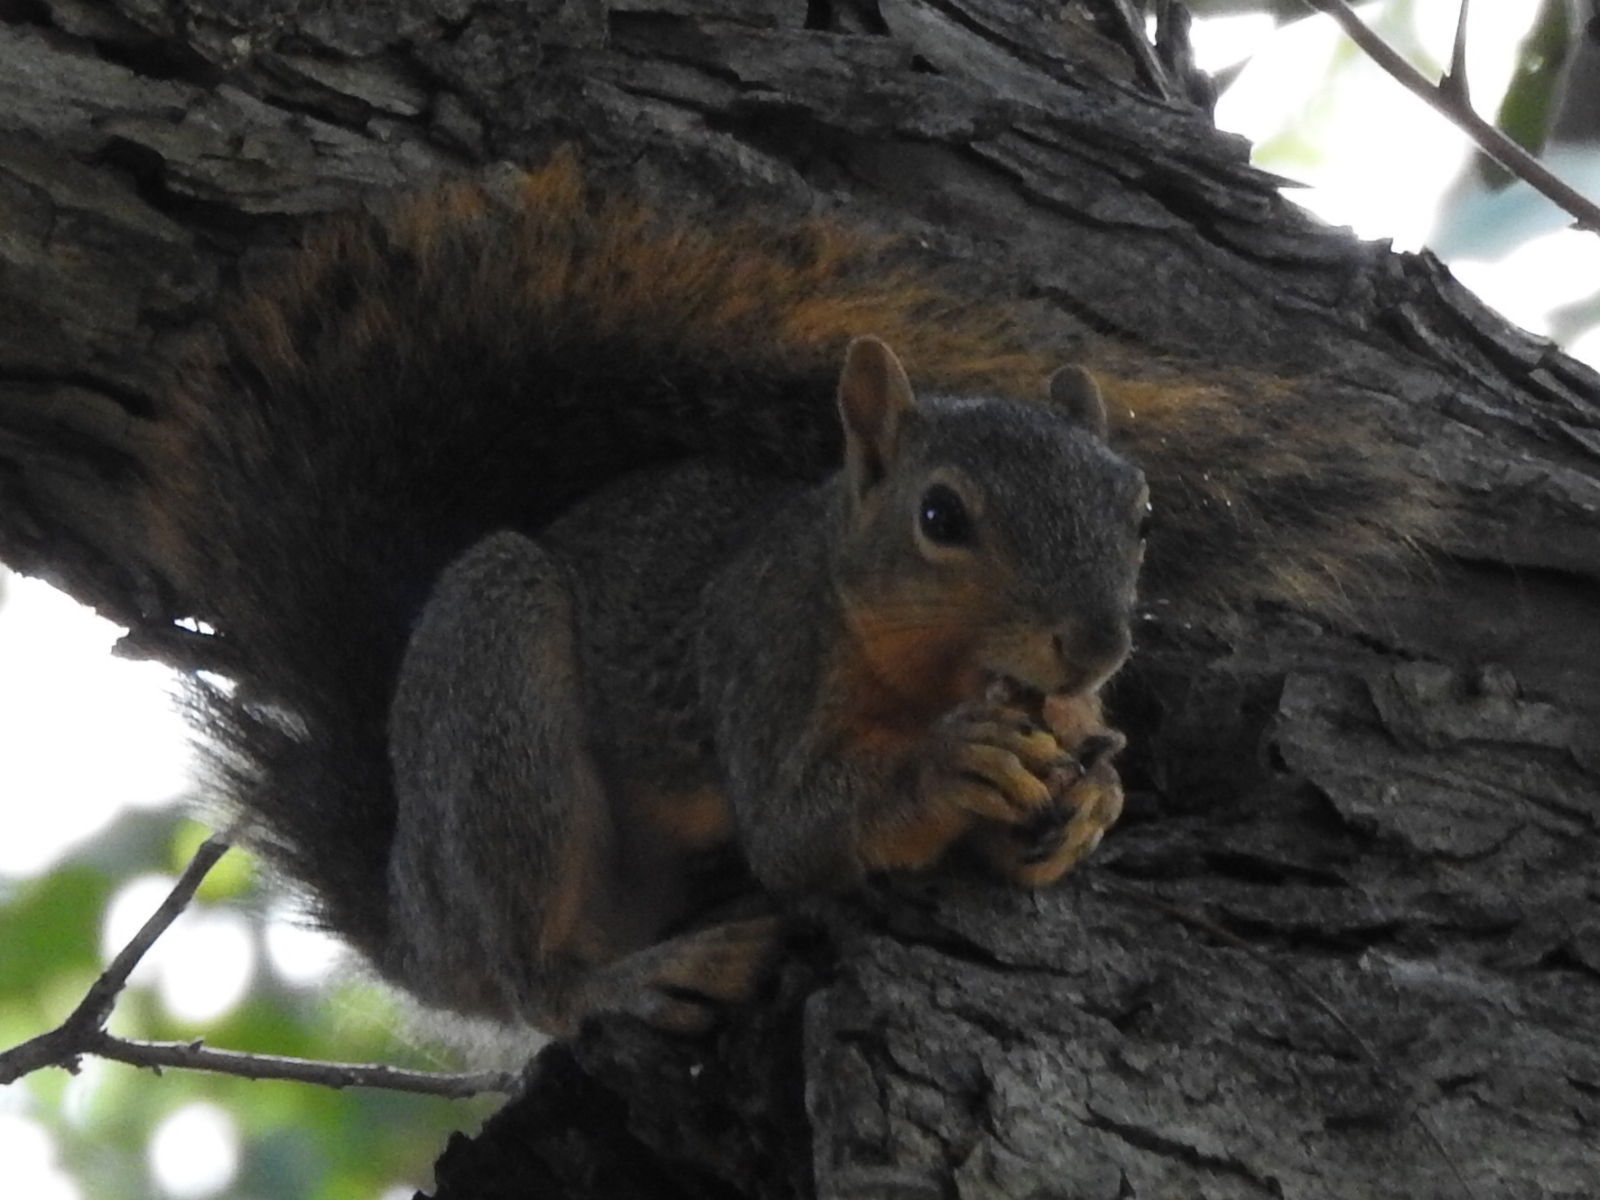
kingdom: Animalia
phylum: Chordata
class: Mammalia
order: Rodentia
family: Sciuridae
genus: Sciurus
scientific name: Sciurus niger
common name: Fox squirrel
